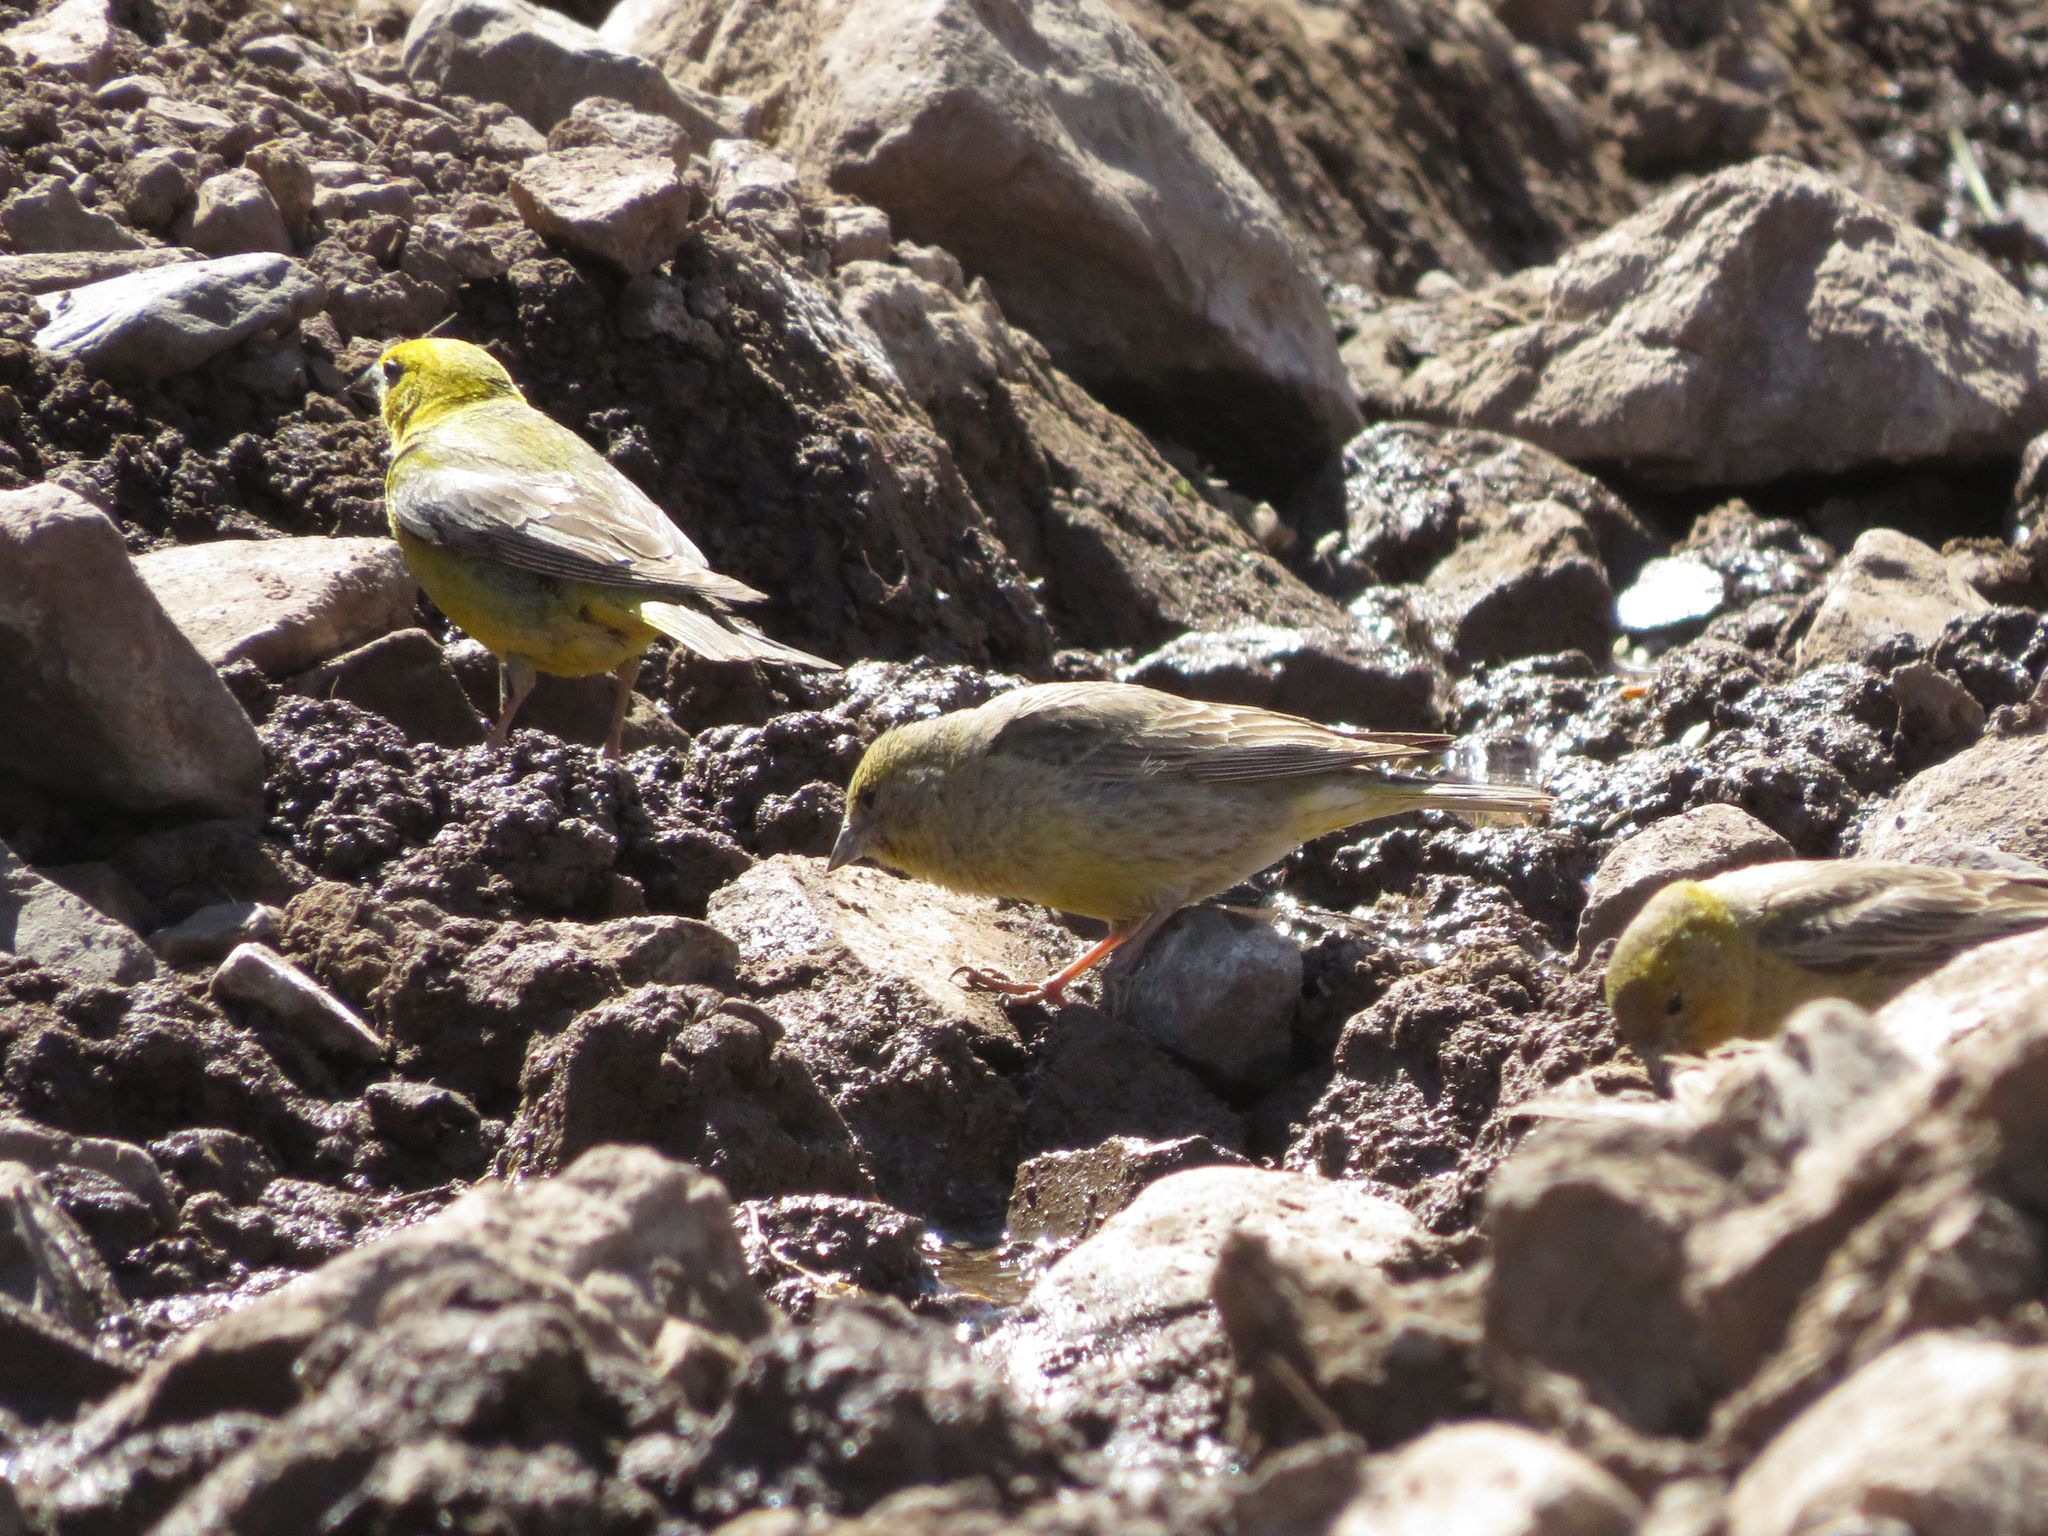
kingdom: Animalia
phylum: Chordata
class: Aves
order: Passeriformes
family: Thraupidae
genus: Sicalis
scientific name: Sicalis auriventris
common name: Greater yellow finch
